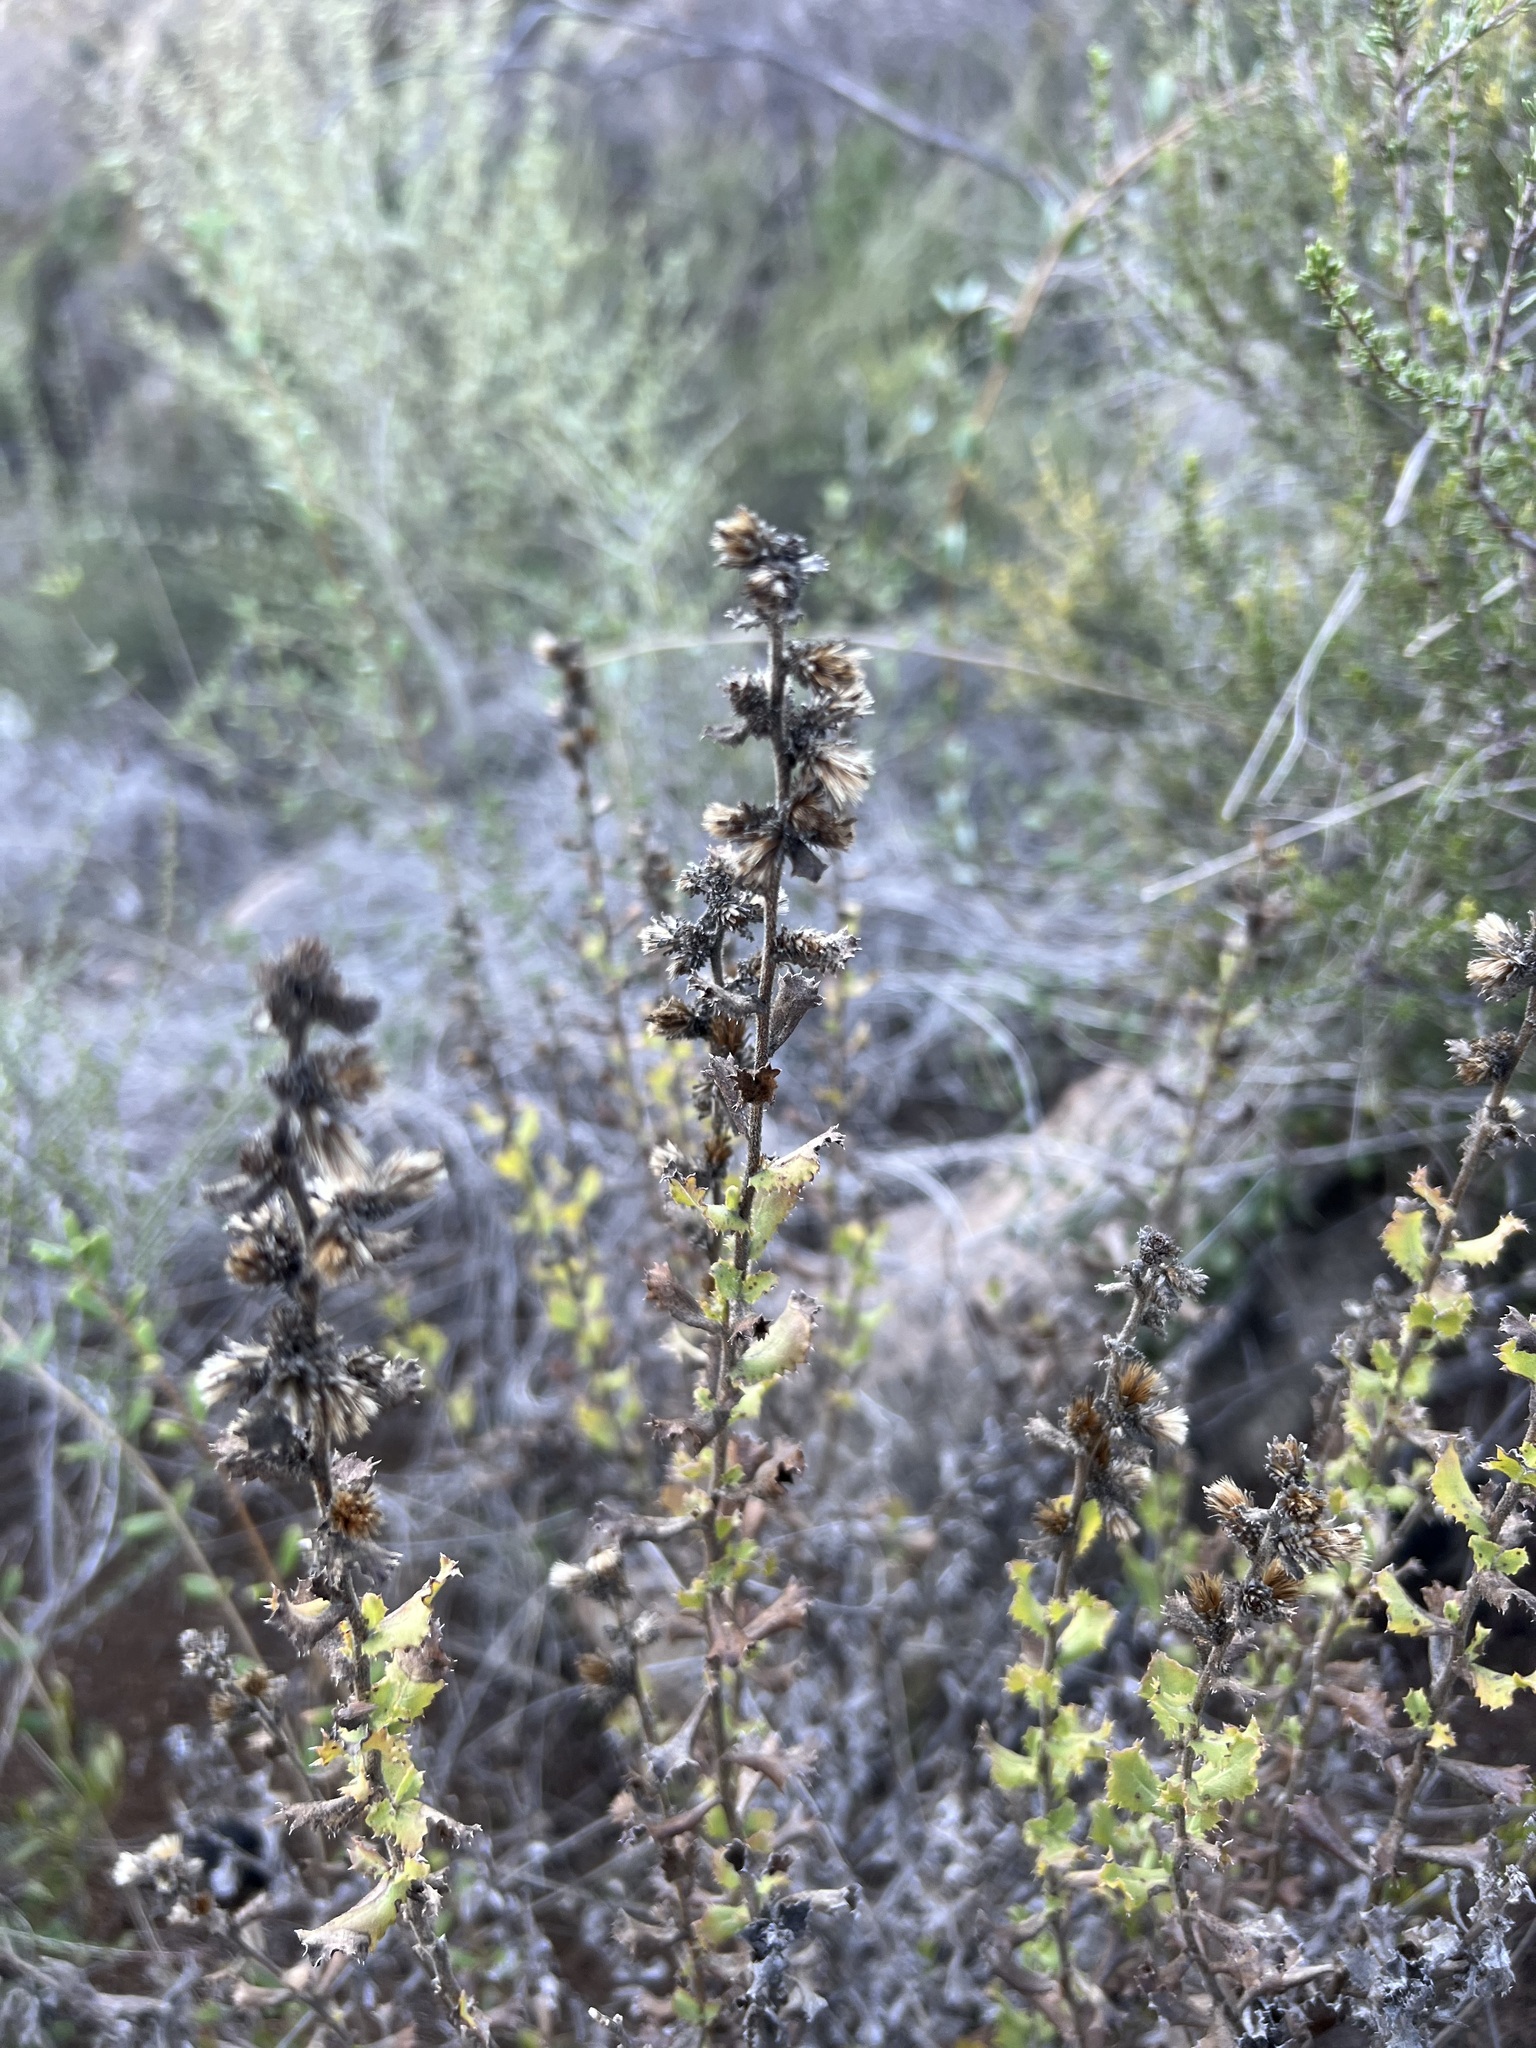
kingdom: Plantae
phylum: Tracheophyta
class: Magnoliopsida
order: Asterales
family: Asteraceae
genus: Hazardia
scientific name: Hazardia squarrosa
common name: Saw-tooth goldenbush
